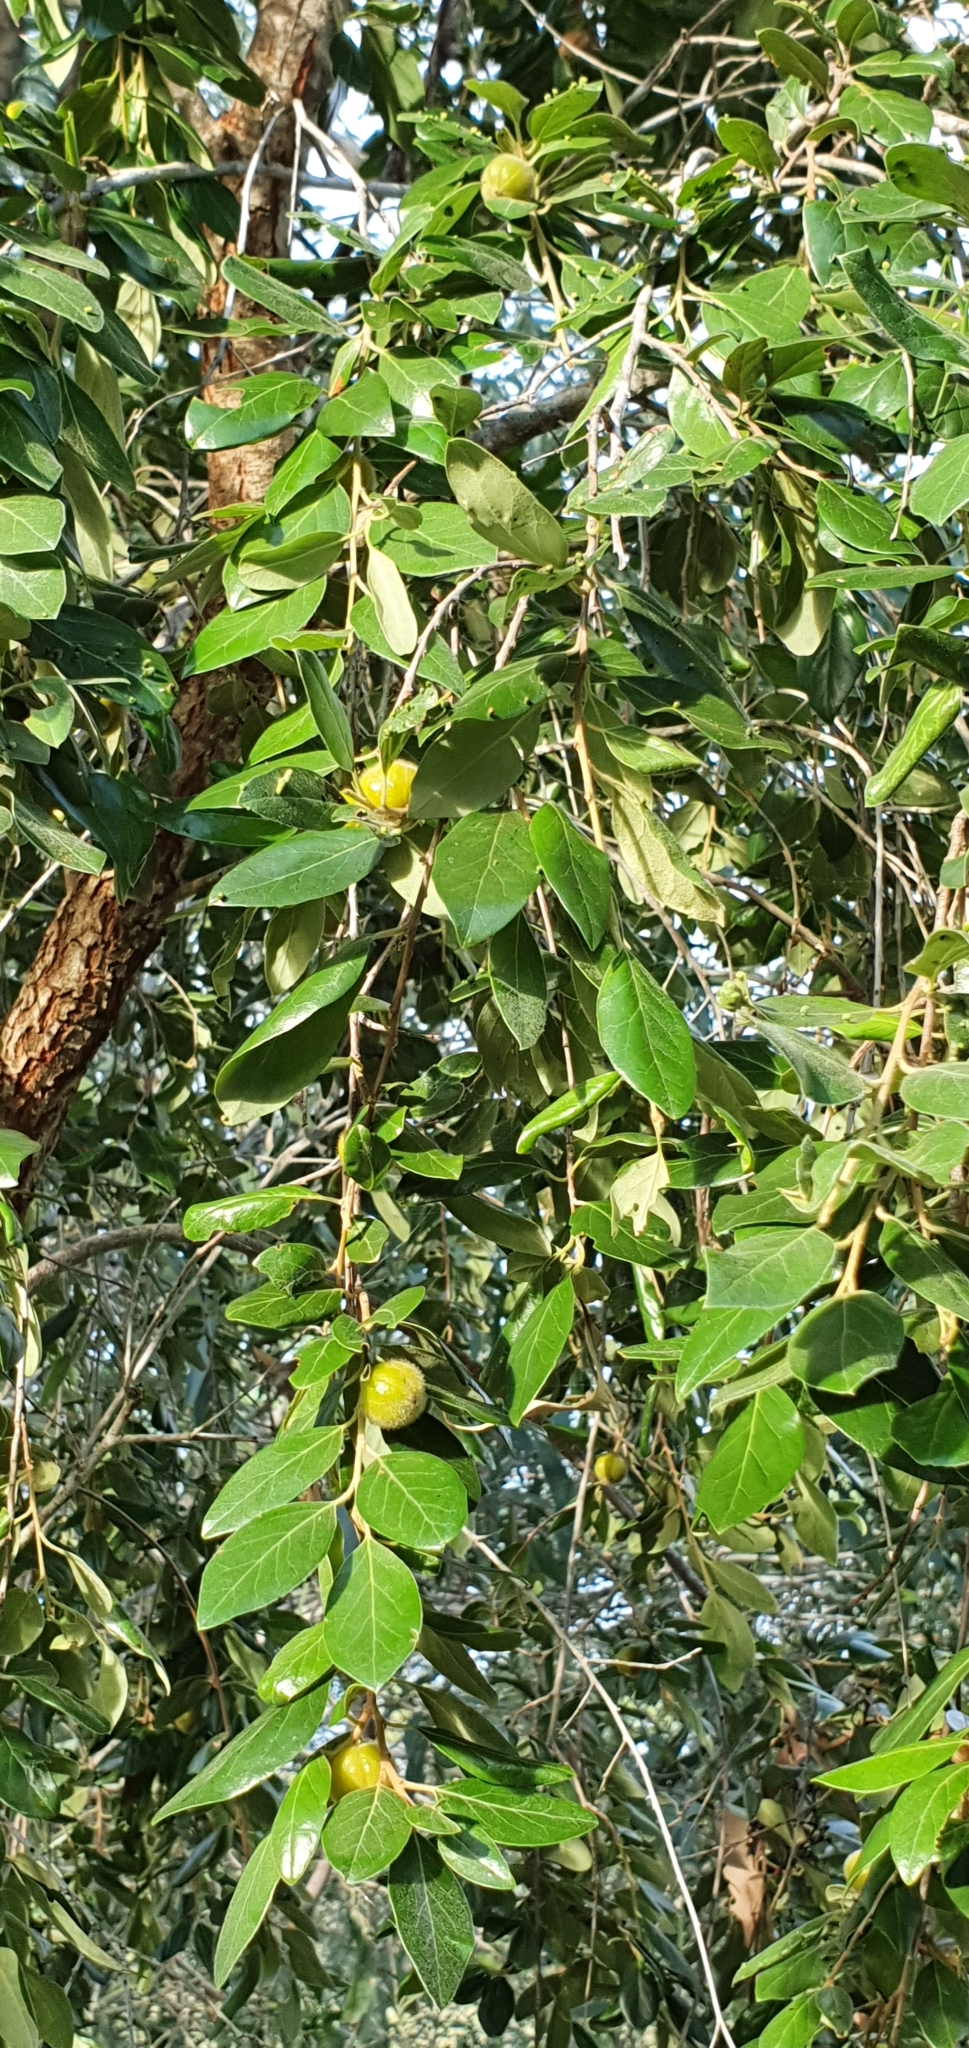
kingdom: Plantae
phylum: Tracheophyta
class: Magnoliopsida
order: Malpighiales
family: Picrodendraceae
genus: Petalostigma
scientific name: Petalostigma pubescens
